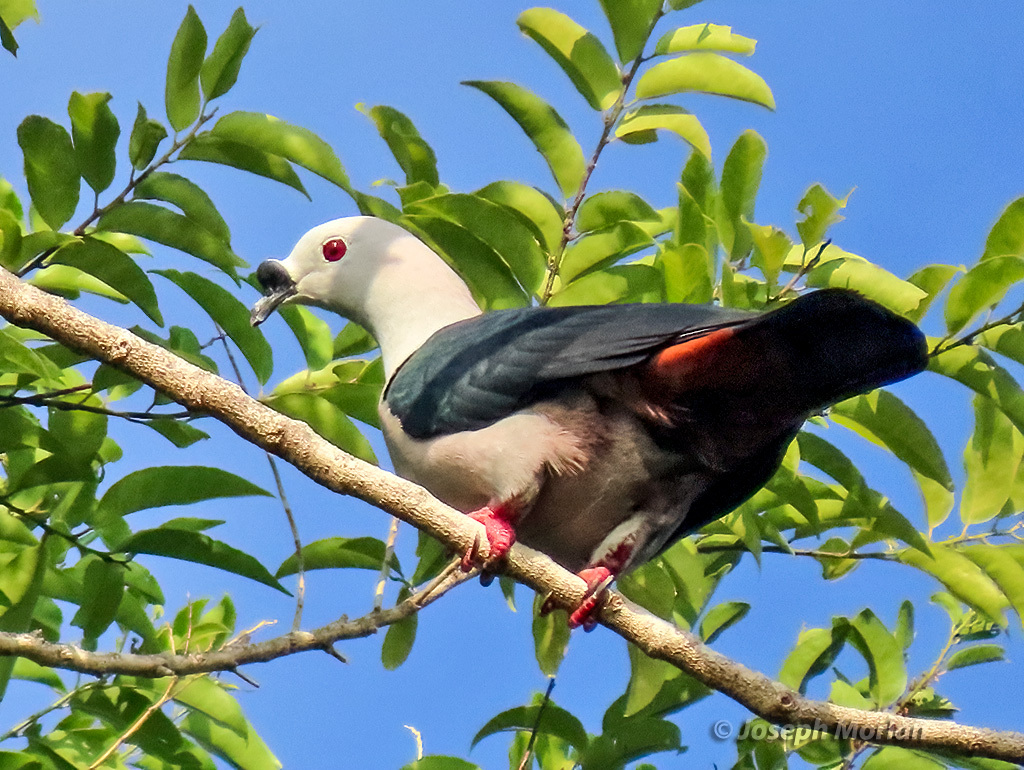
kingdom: Animalia
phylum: Chordata
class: Aves
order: Columbiformes
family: Columbidae
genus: Ducula
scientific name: Ducula myristicivora
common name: Spice imperial pigeon
